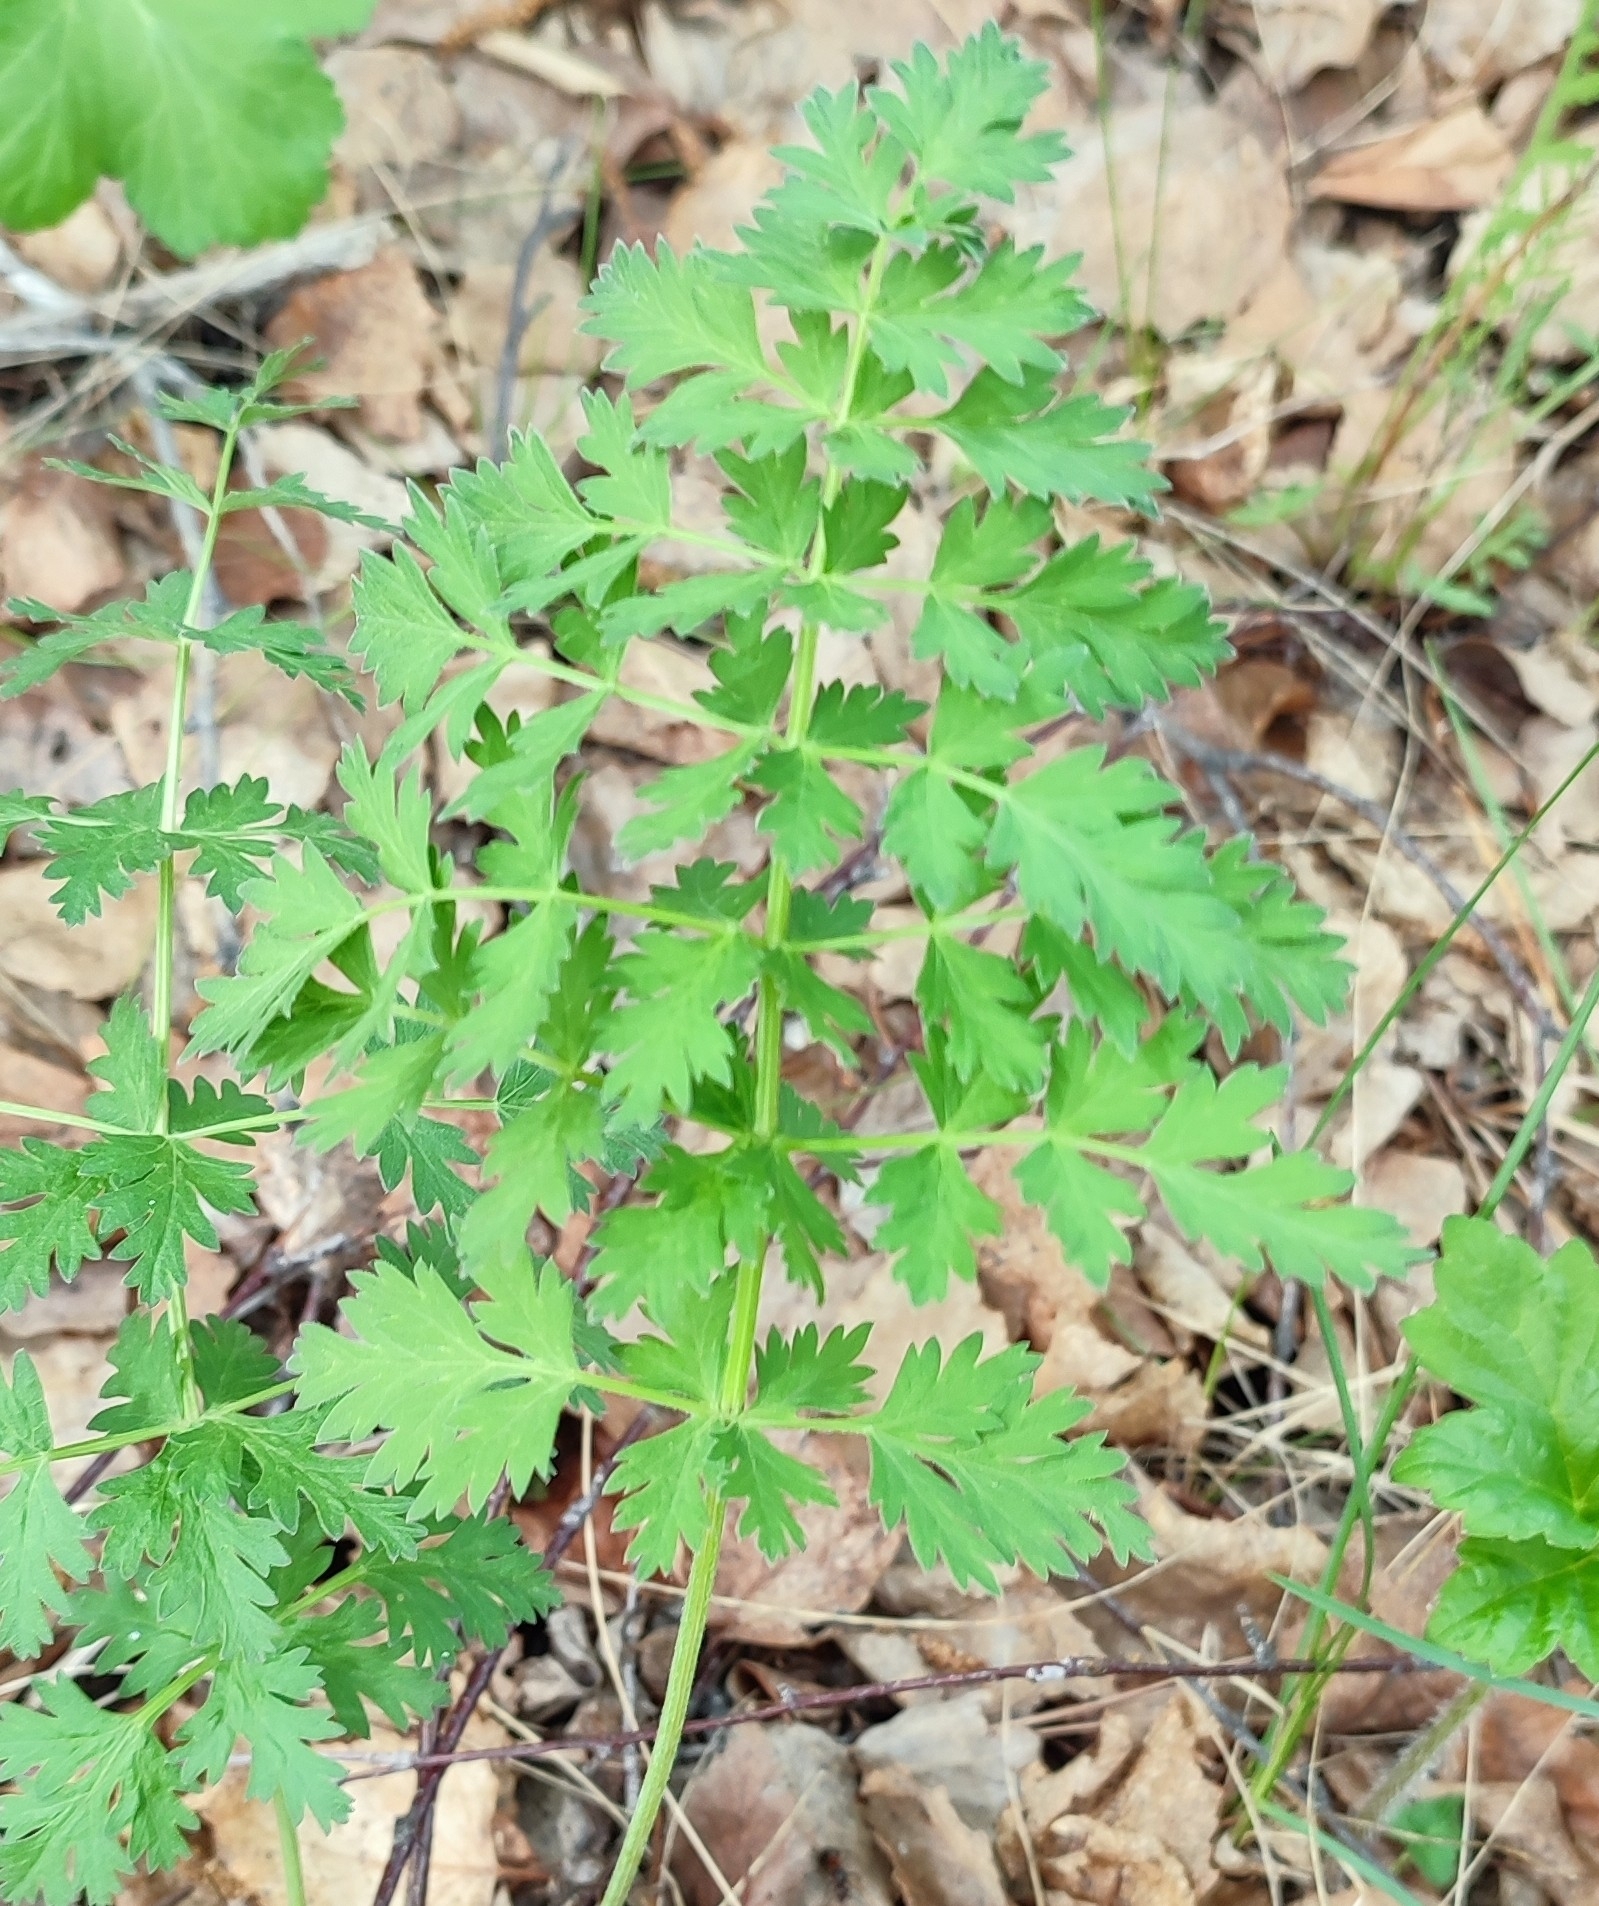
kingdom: Plantae
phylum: Tracheophyta
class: Magnoliopsida
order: Apiales
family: Apiaceae
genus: Seseli
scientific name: Seseli libanotis
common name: Mooncarrot
